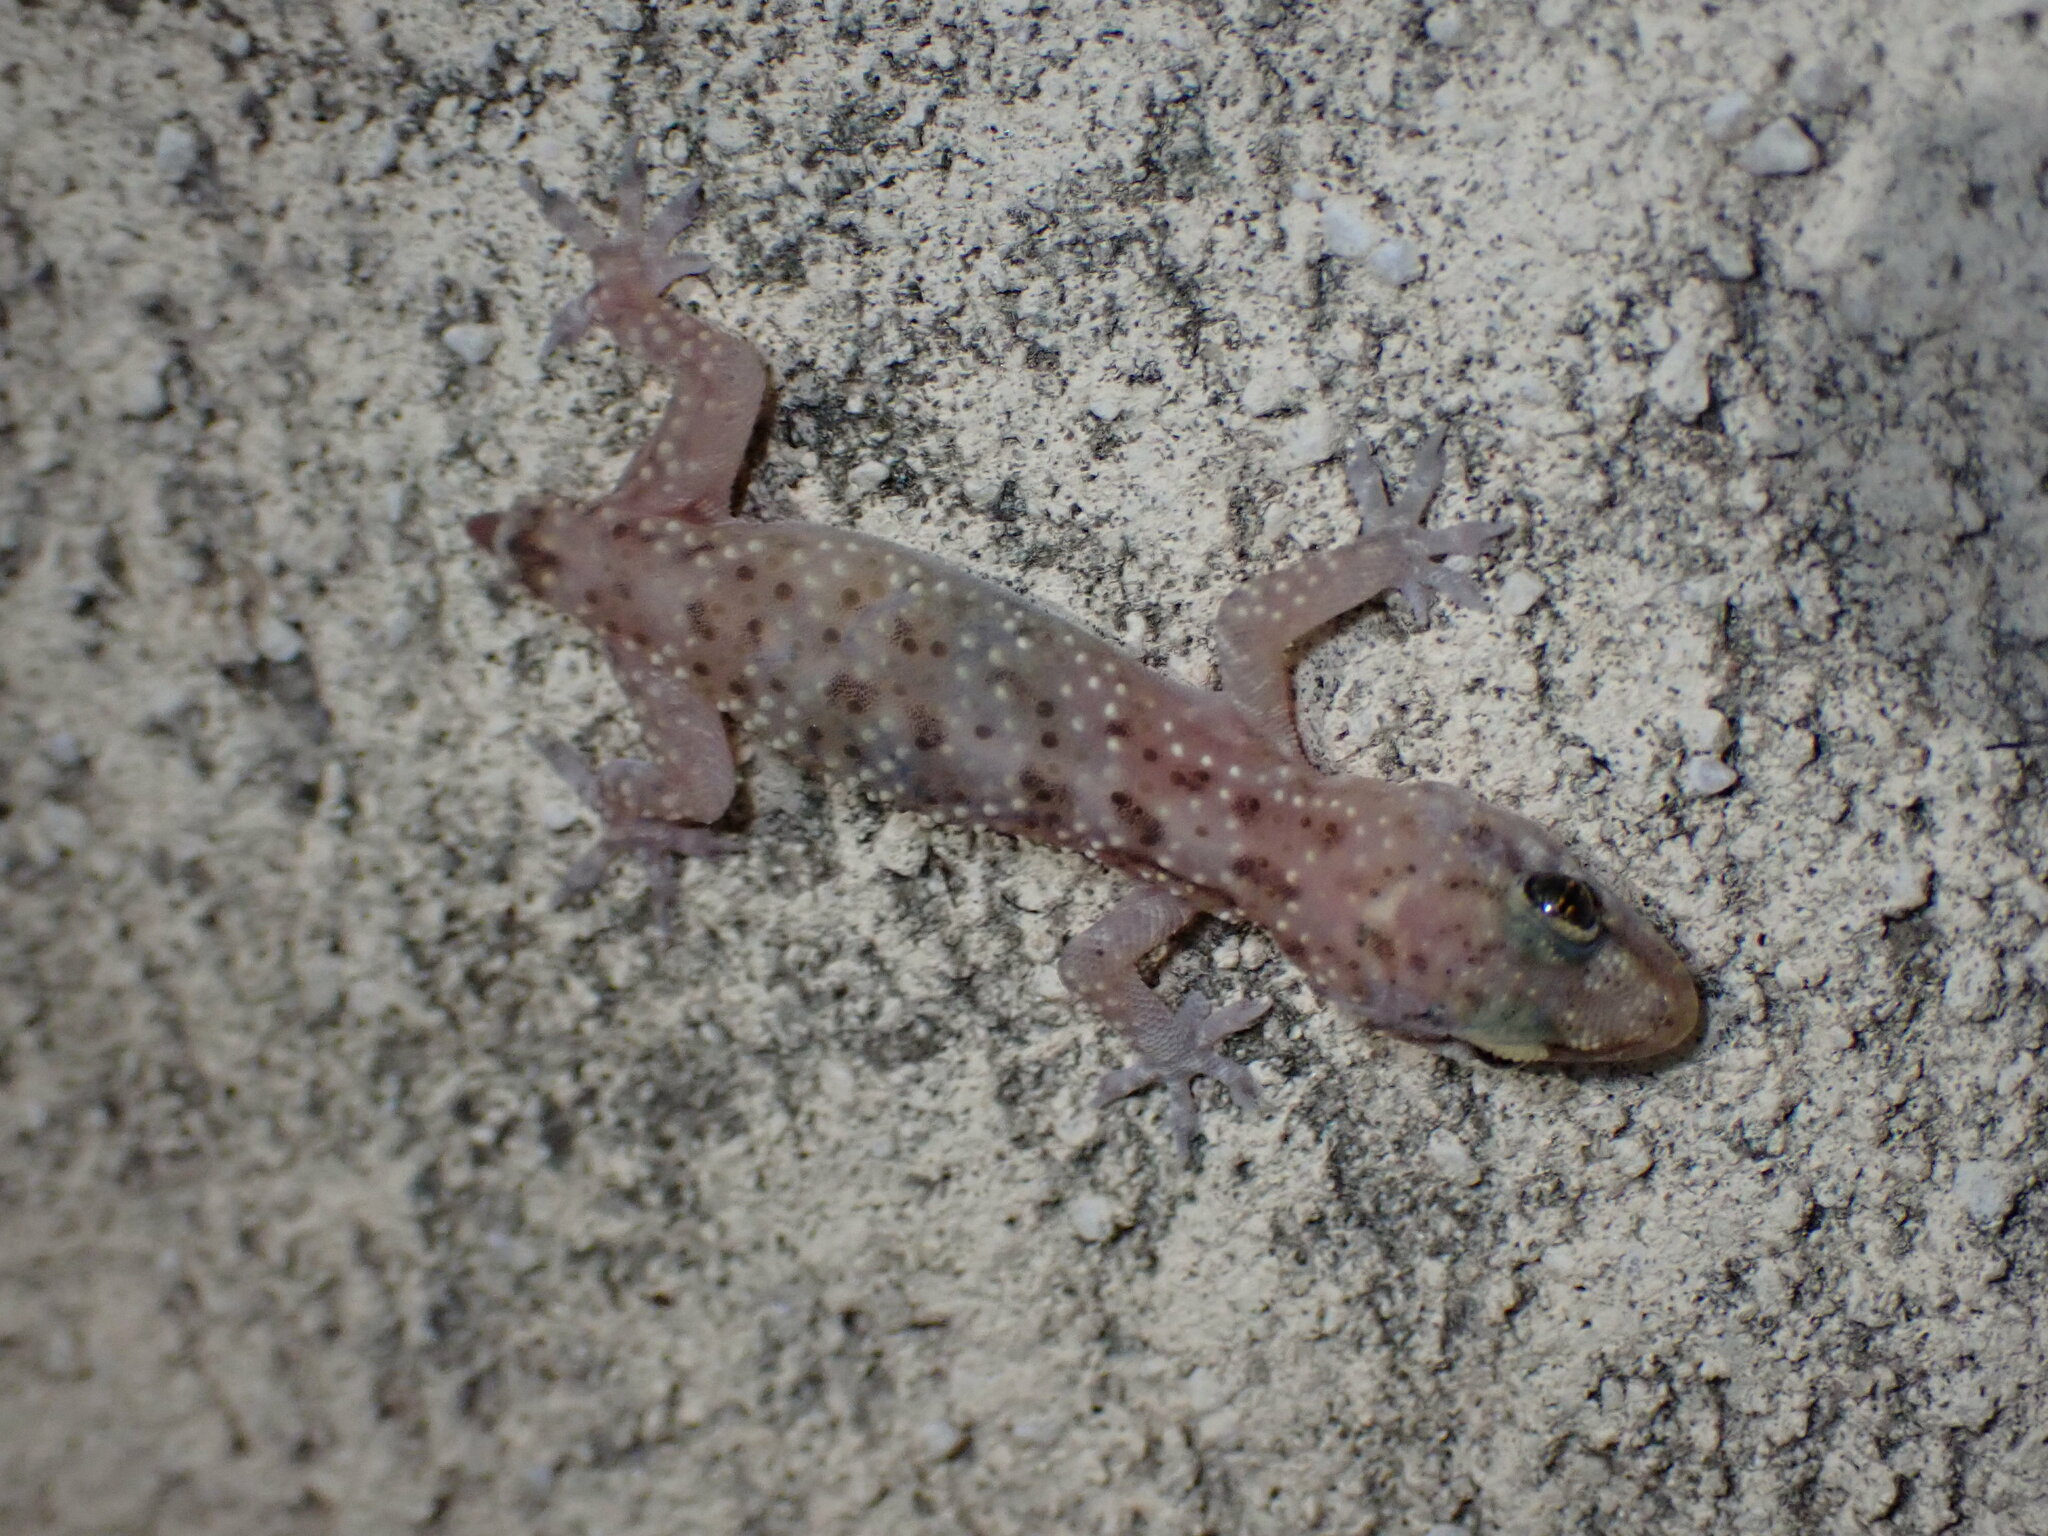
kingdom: Animalia
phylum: Chordata
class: Squamata
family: Gekkonidae
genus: Hemidactylus
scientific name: Hemidactylus turcicus
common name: Turkish gecko
